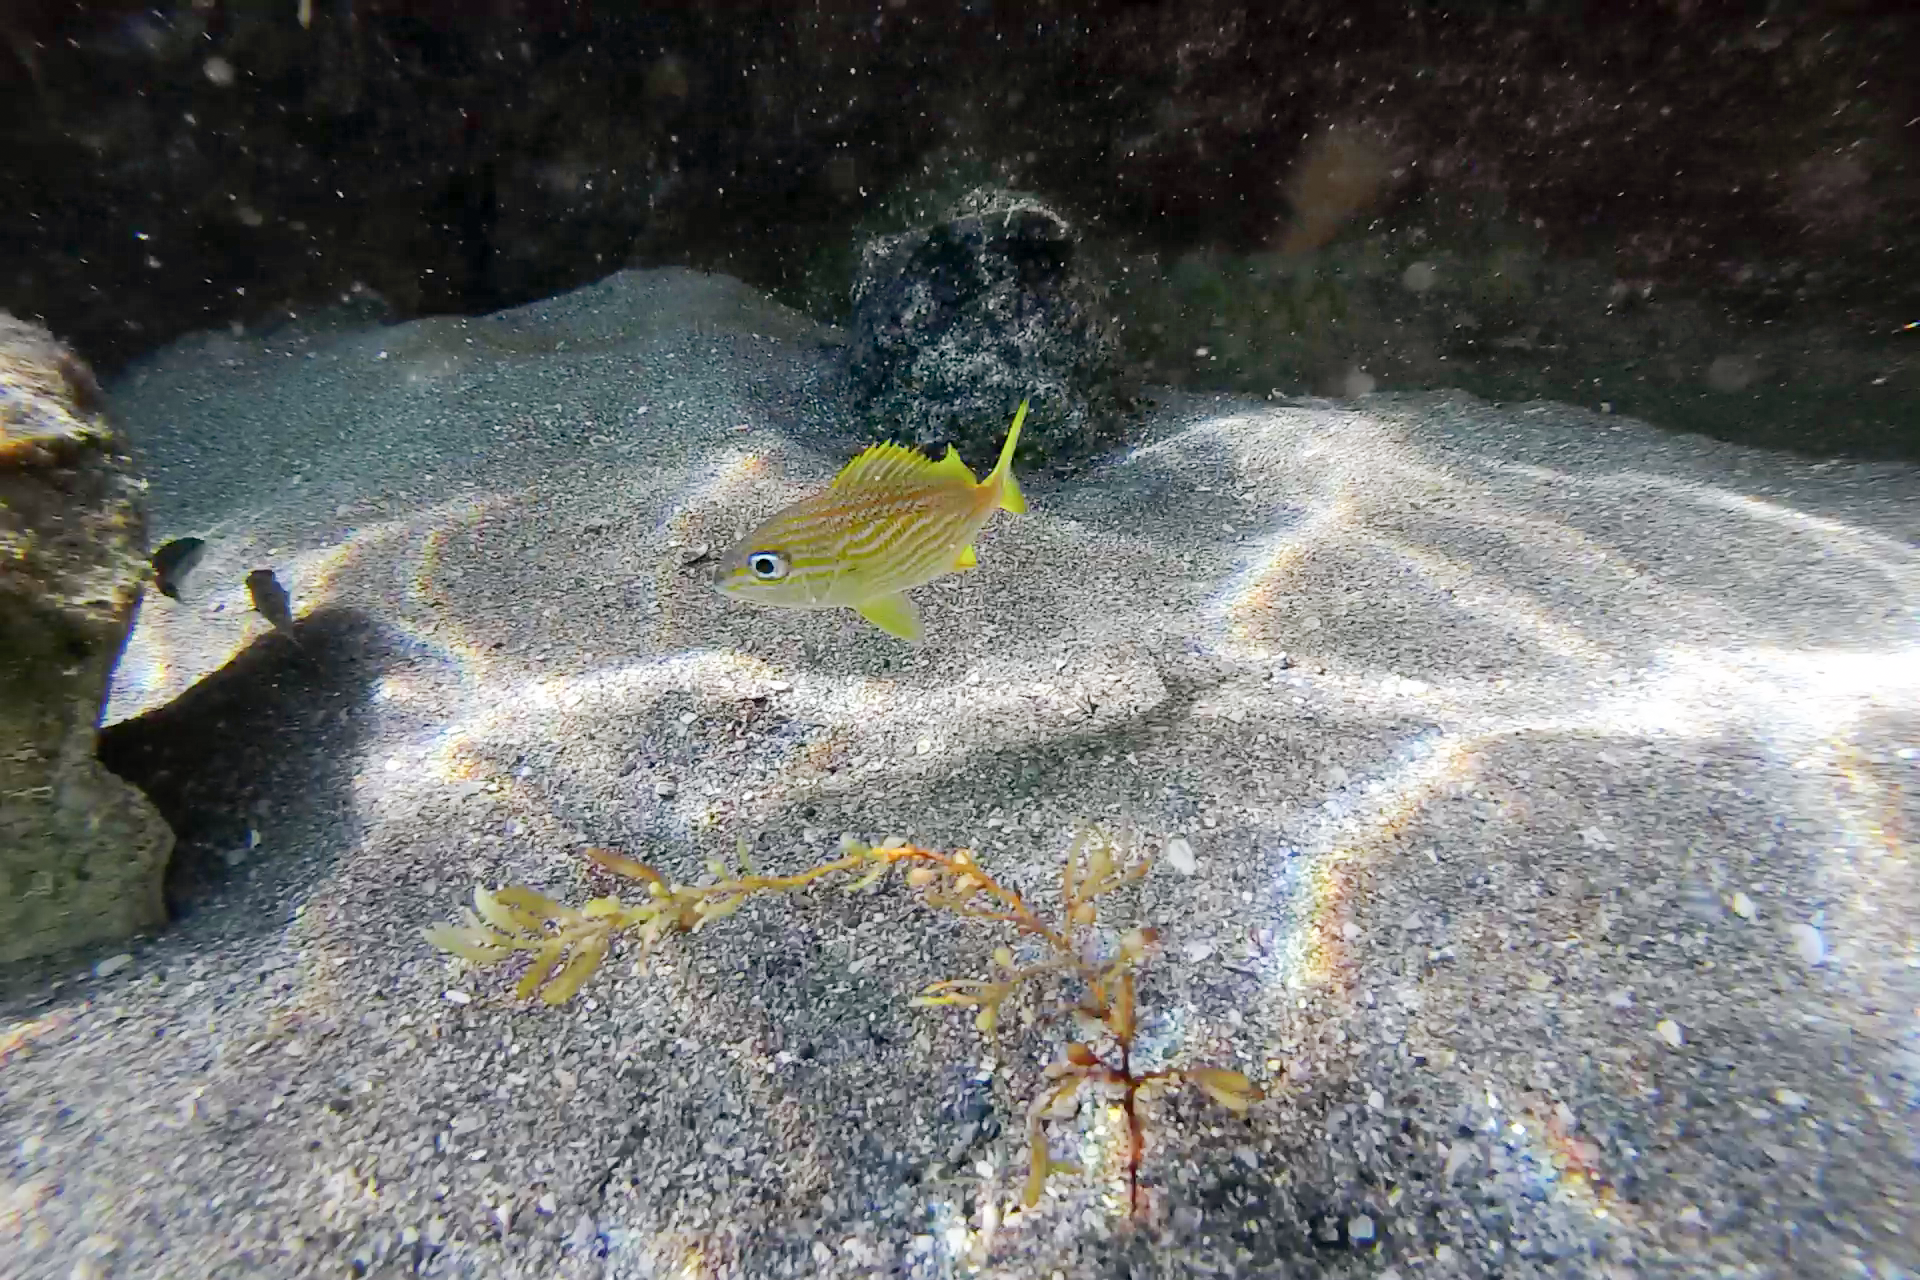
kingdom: Animalia
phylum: Chordata
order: Perciformes
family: Haemulidae
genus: Haemulon
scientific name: Haemulon flavolineatum
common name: French grunt
